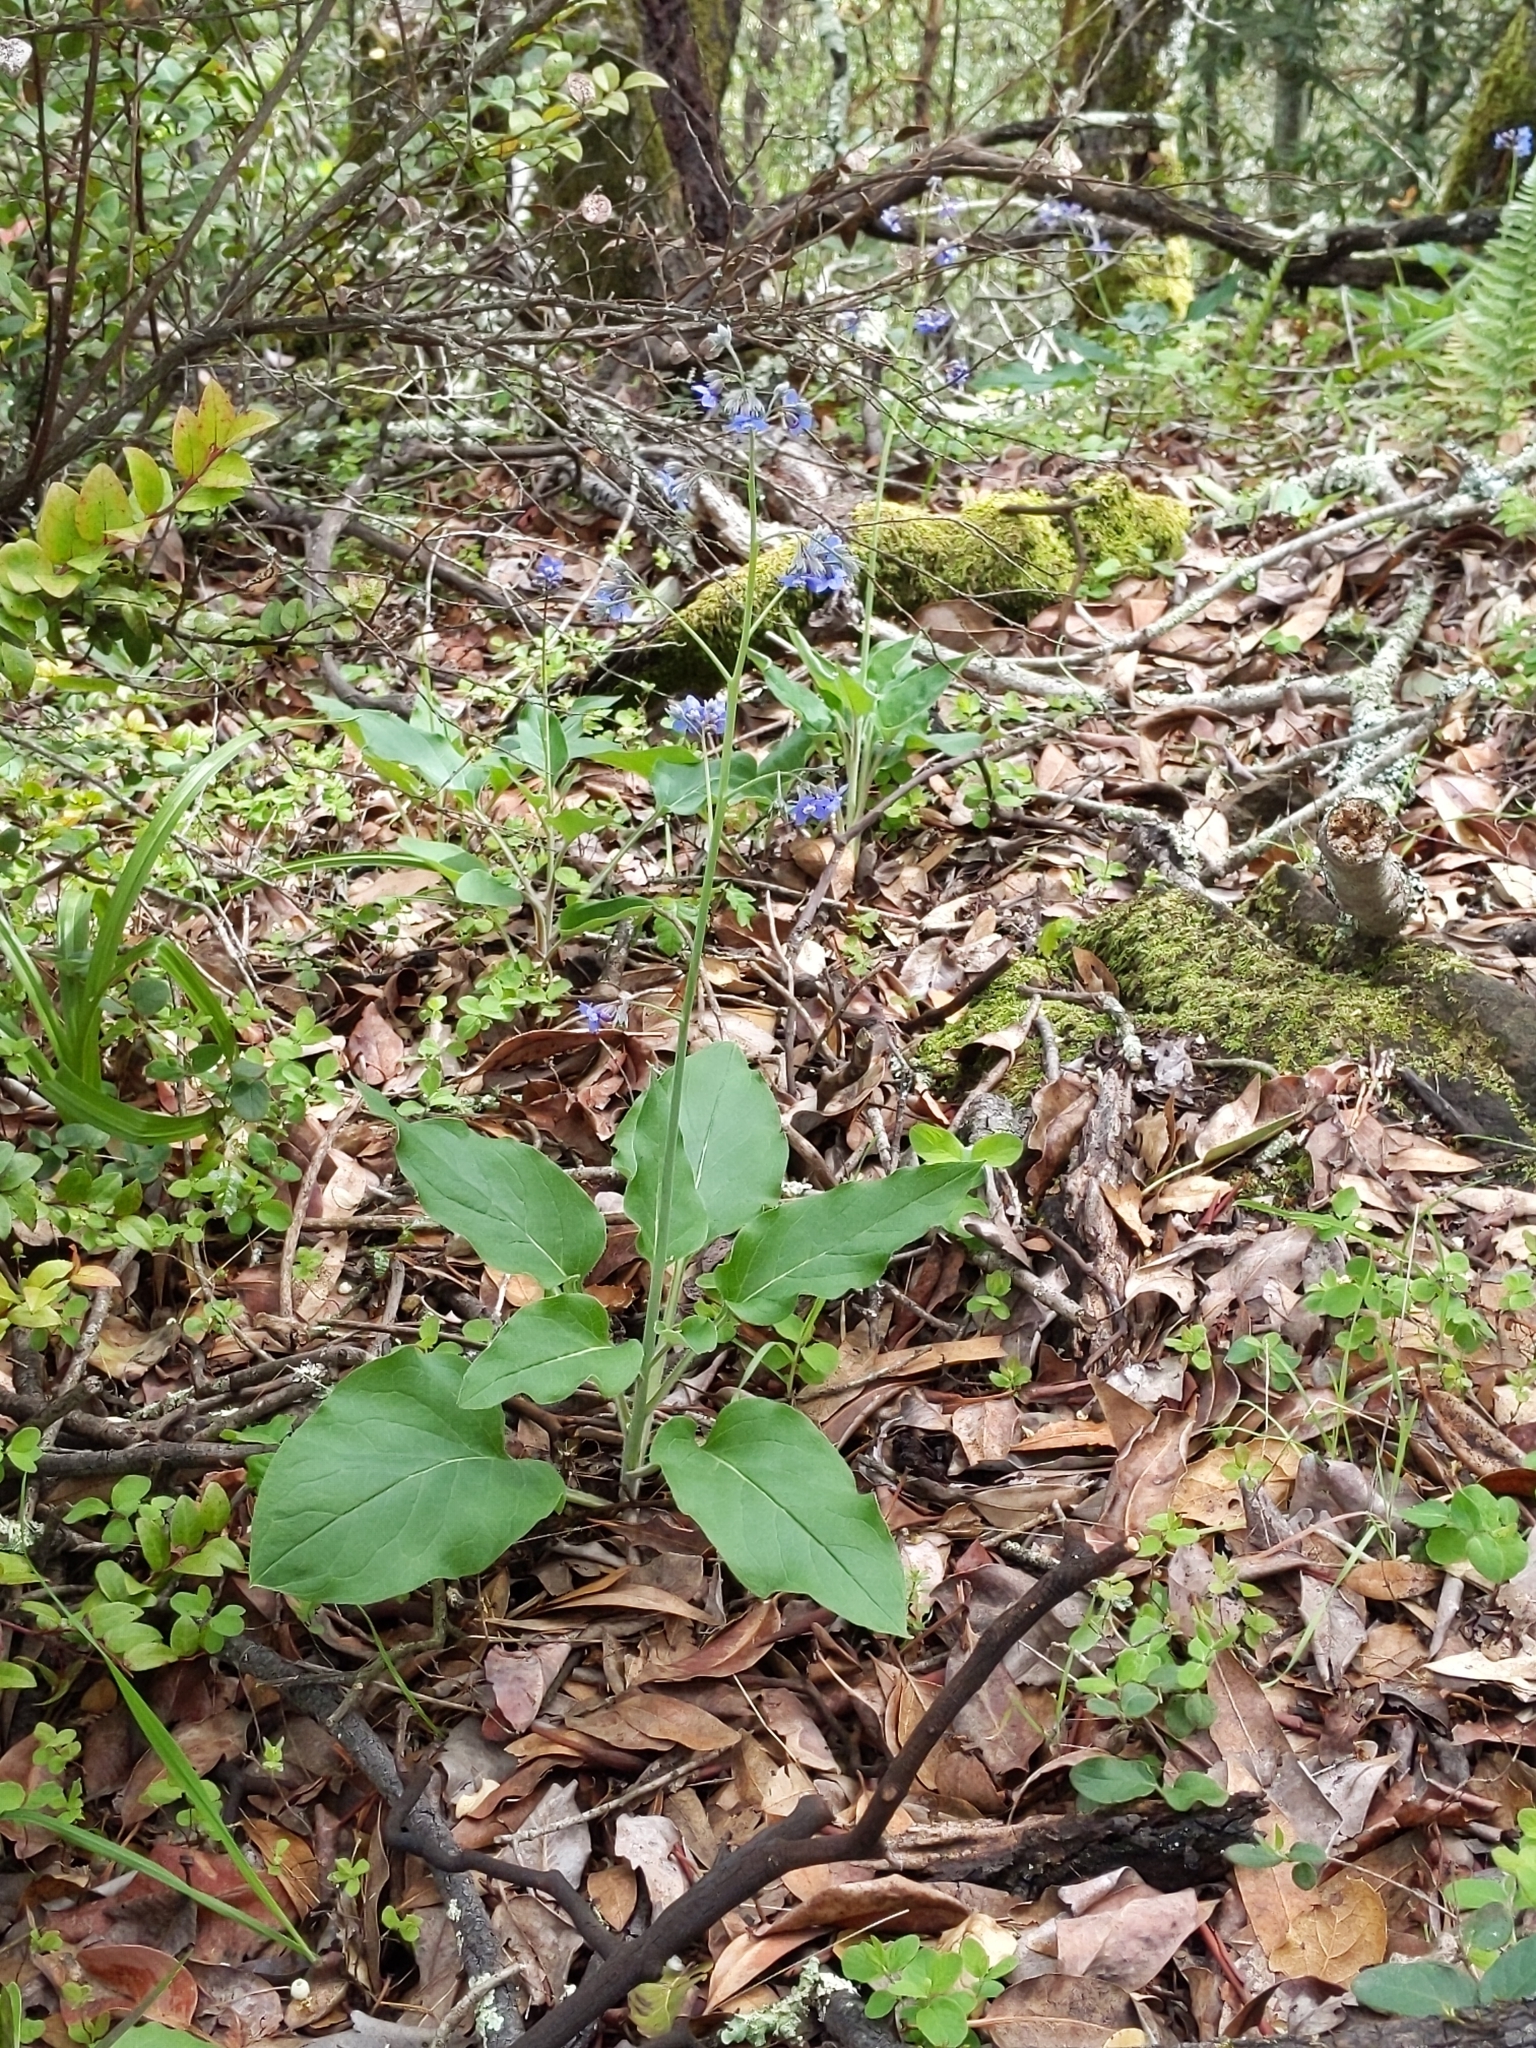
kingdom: Plantae
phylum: Tracheophyta
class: Magnoliopsida
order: Boraginales
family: Boraginaceae
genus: Adelinia
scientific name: Adelinia grande
